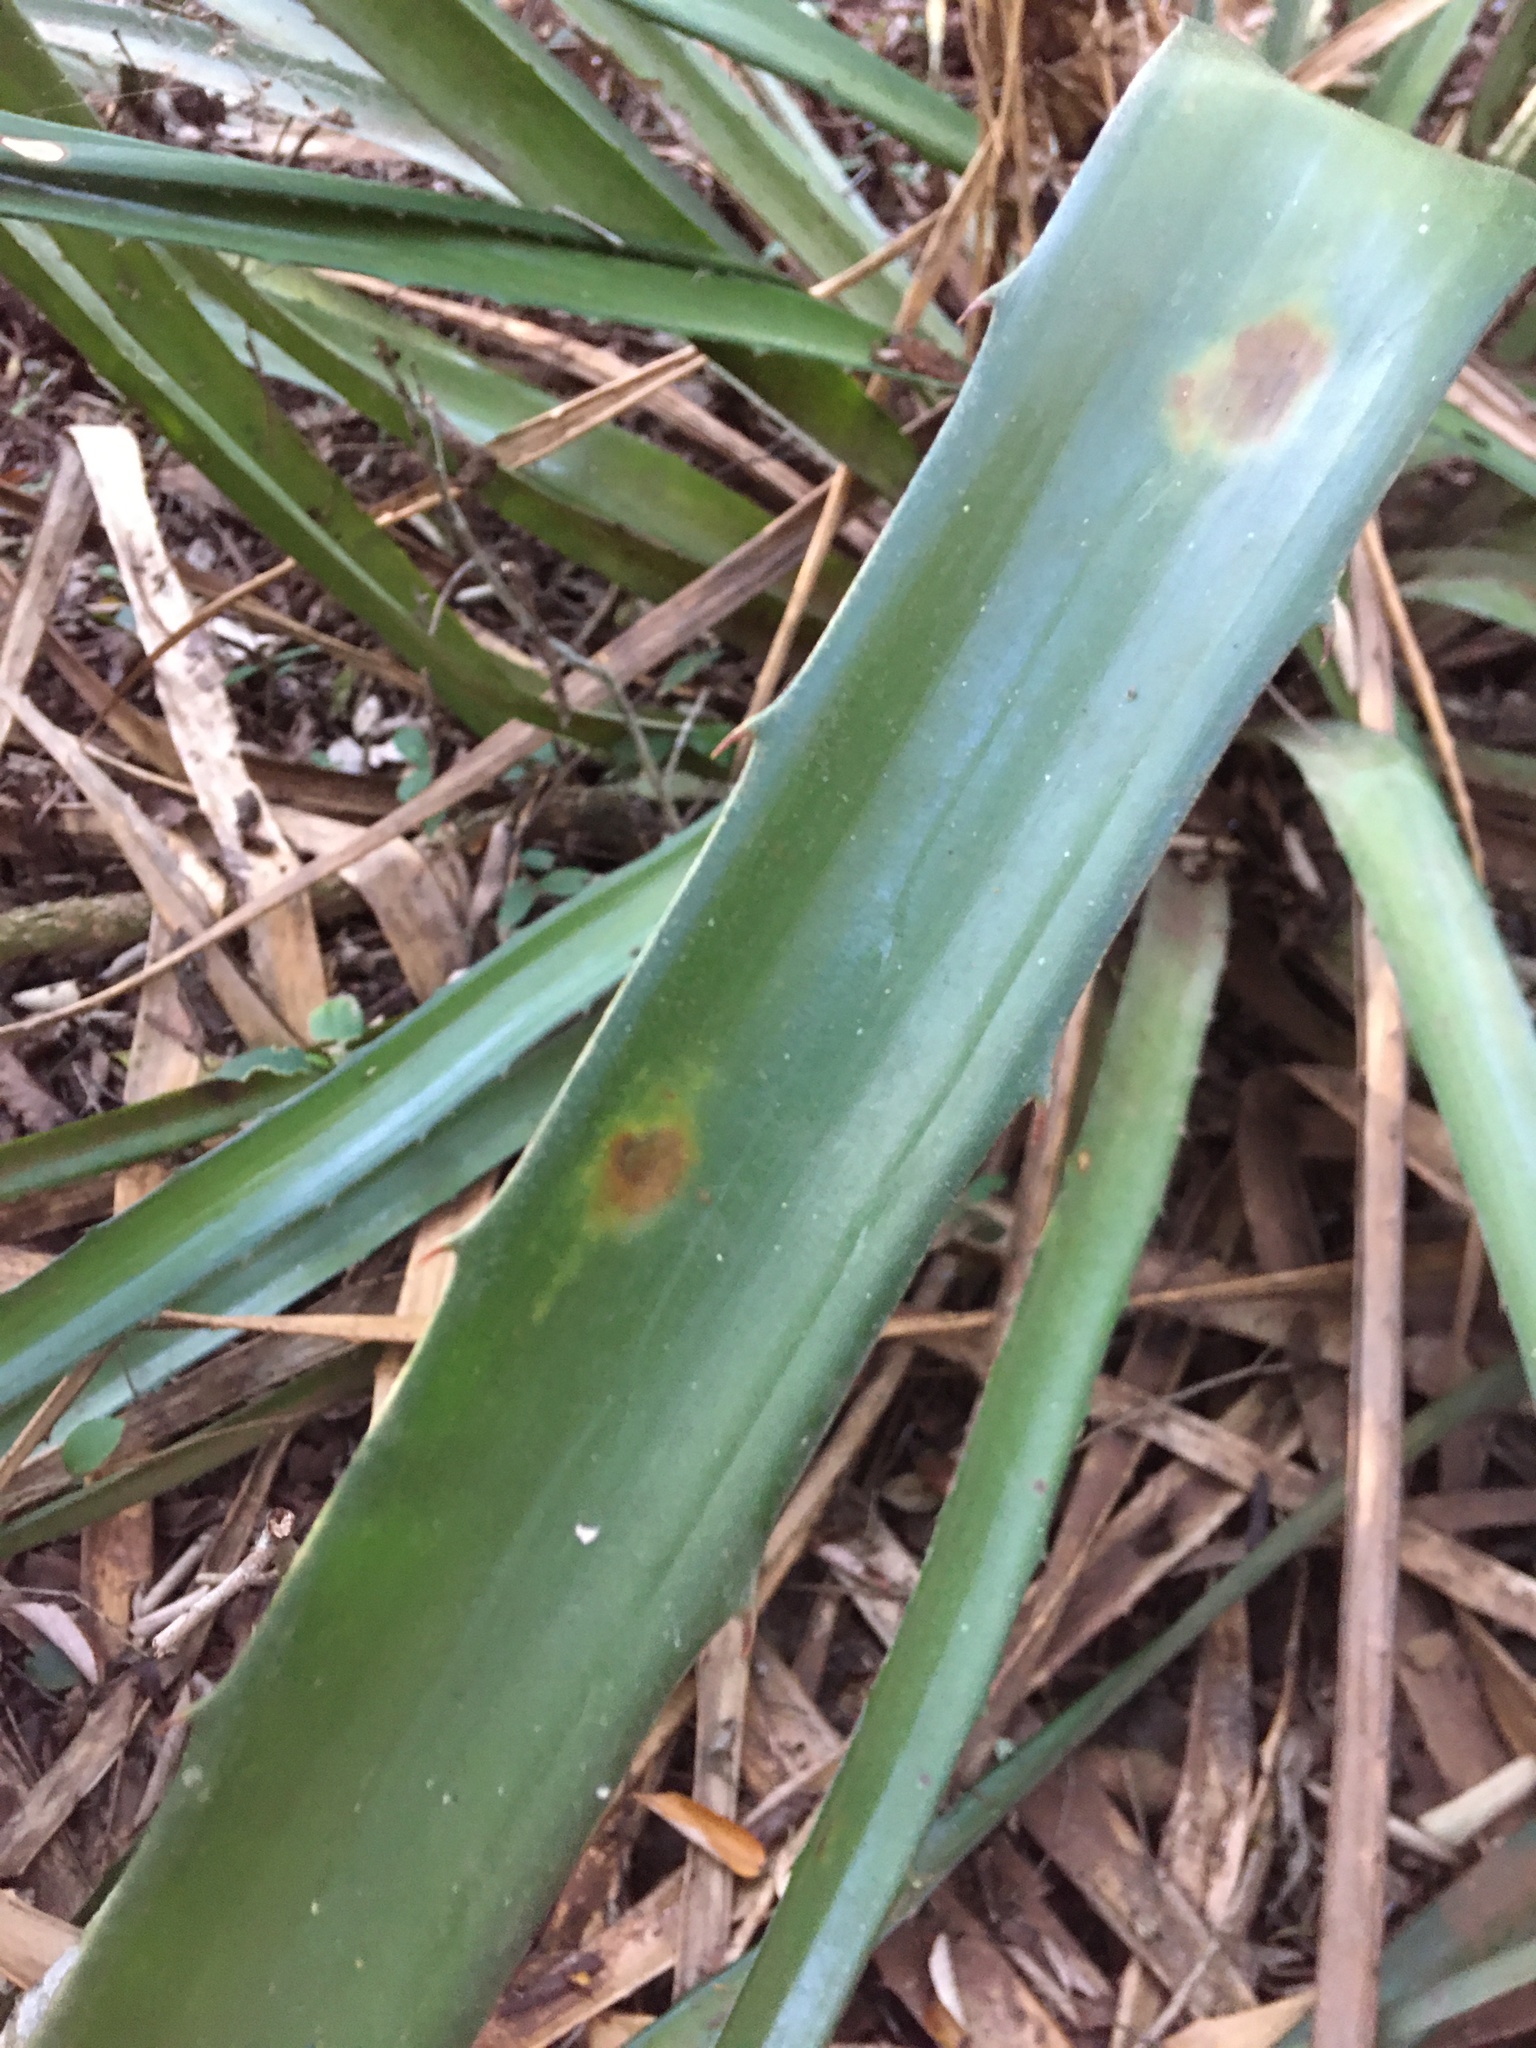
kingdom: Plantae
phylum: Tracheophyta
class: Liliopsida
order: Poales
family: Bromeliaceae
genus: Bromelia
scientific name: Bromelia balansae
